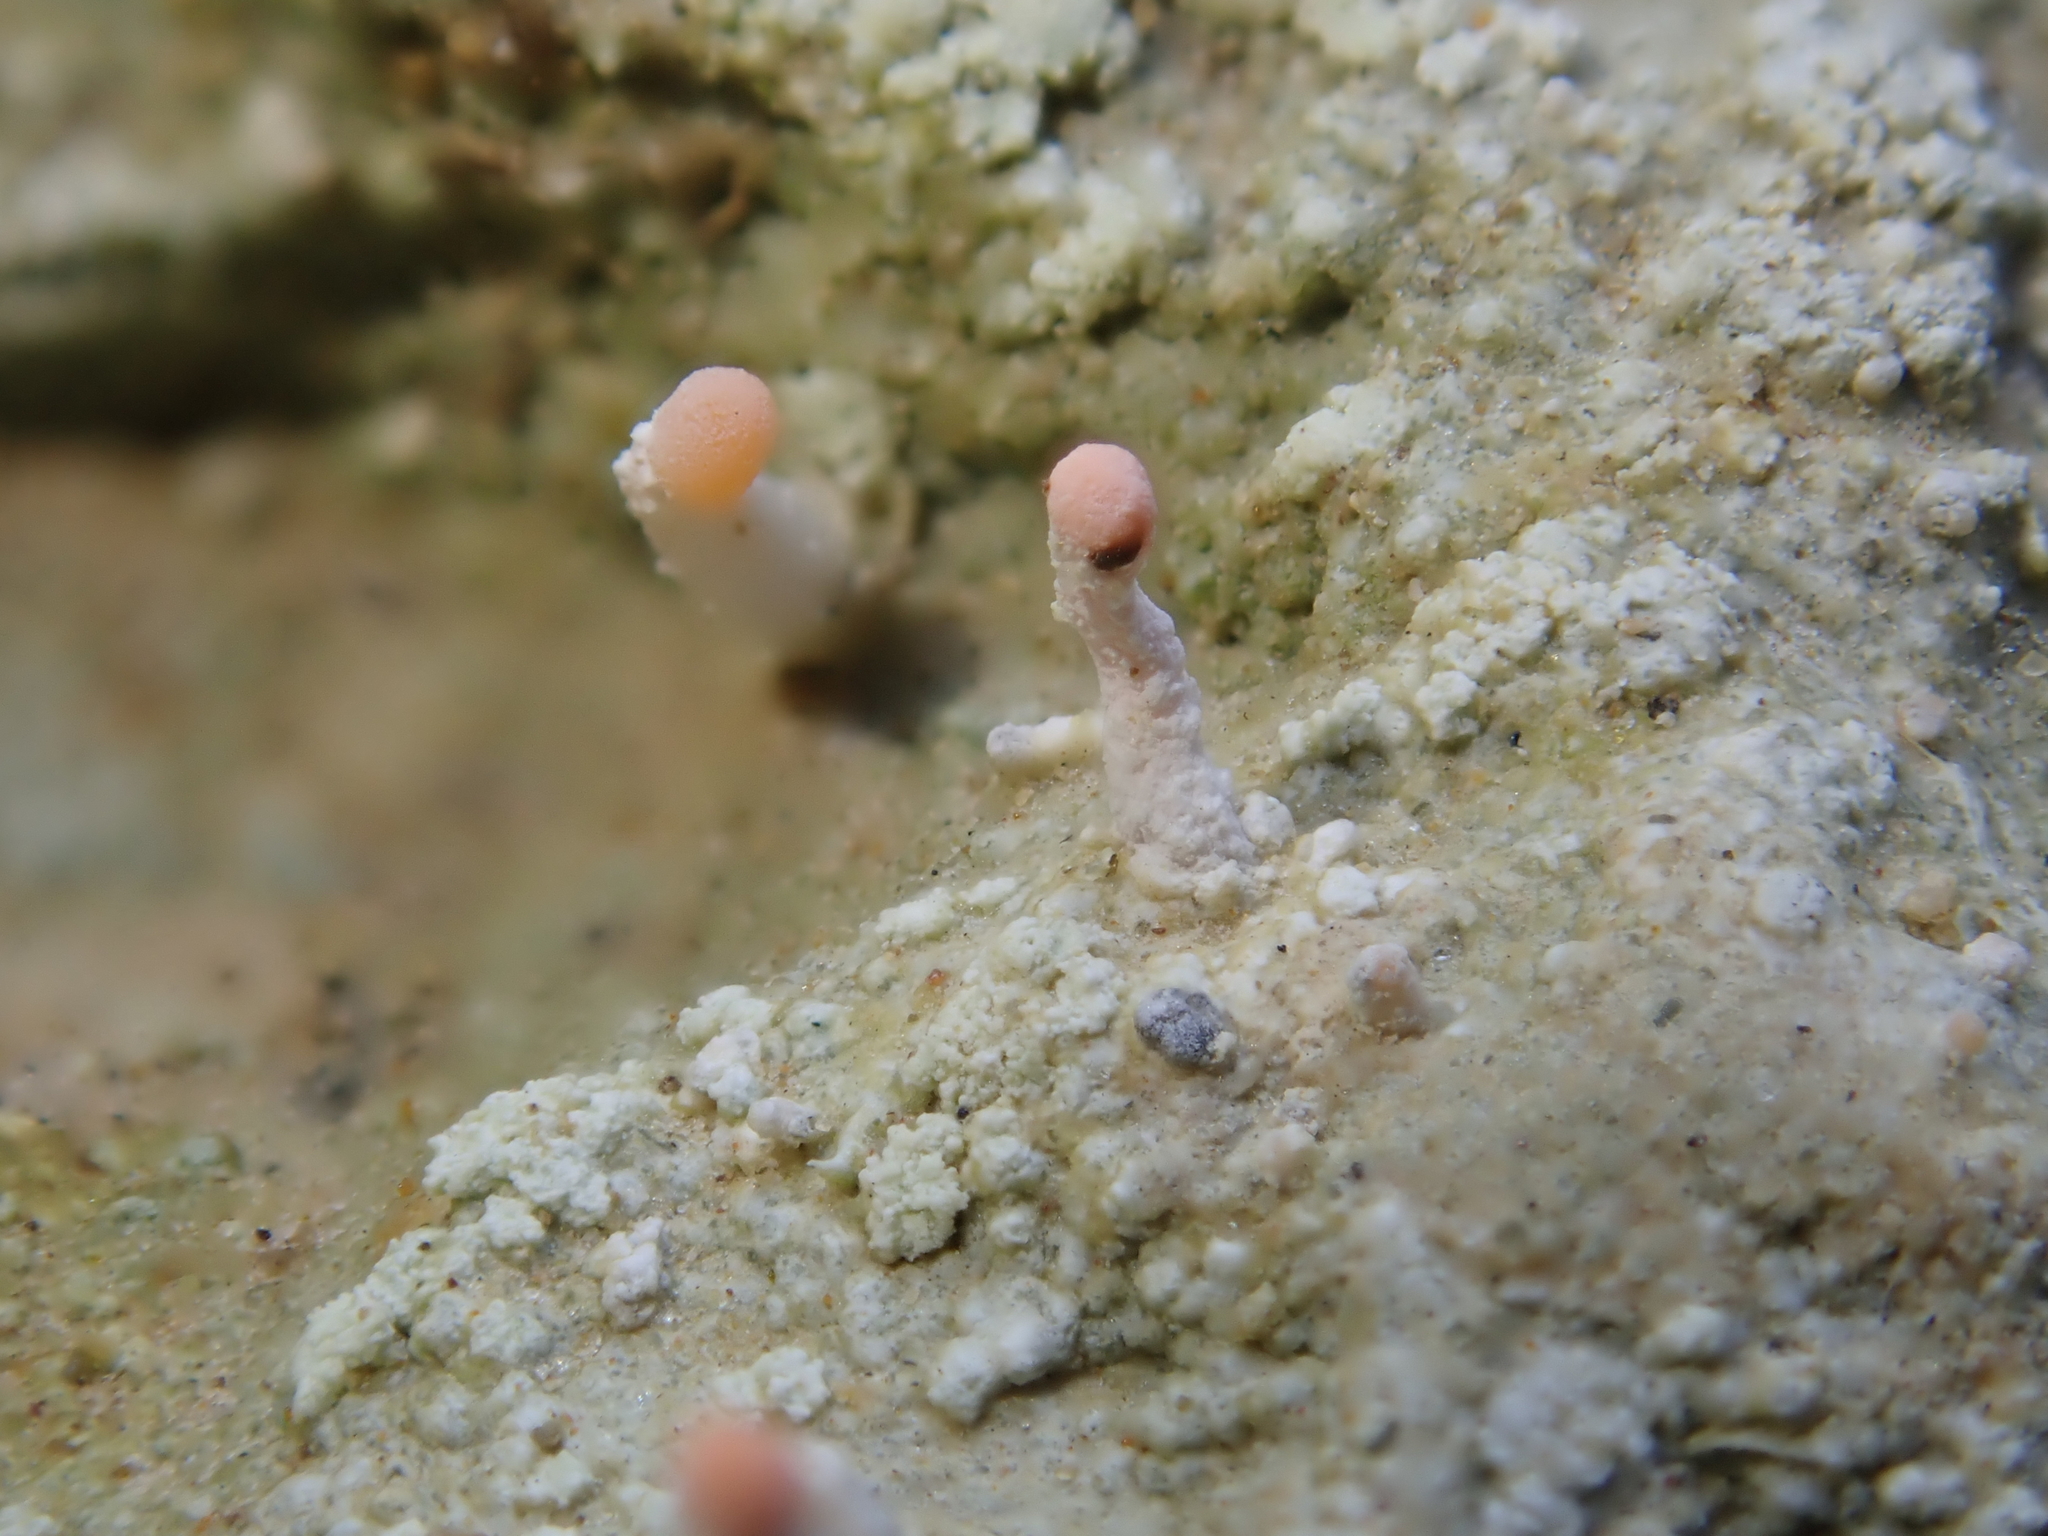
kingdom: Fungi
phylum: Ascomycota
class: Lecanoromycetes
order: Pertusariales
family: Icmadophilaceae
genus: Dibaeis
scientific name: Dibaeis arcuata
